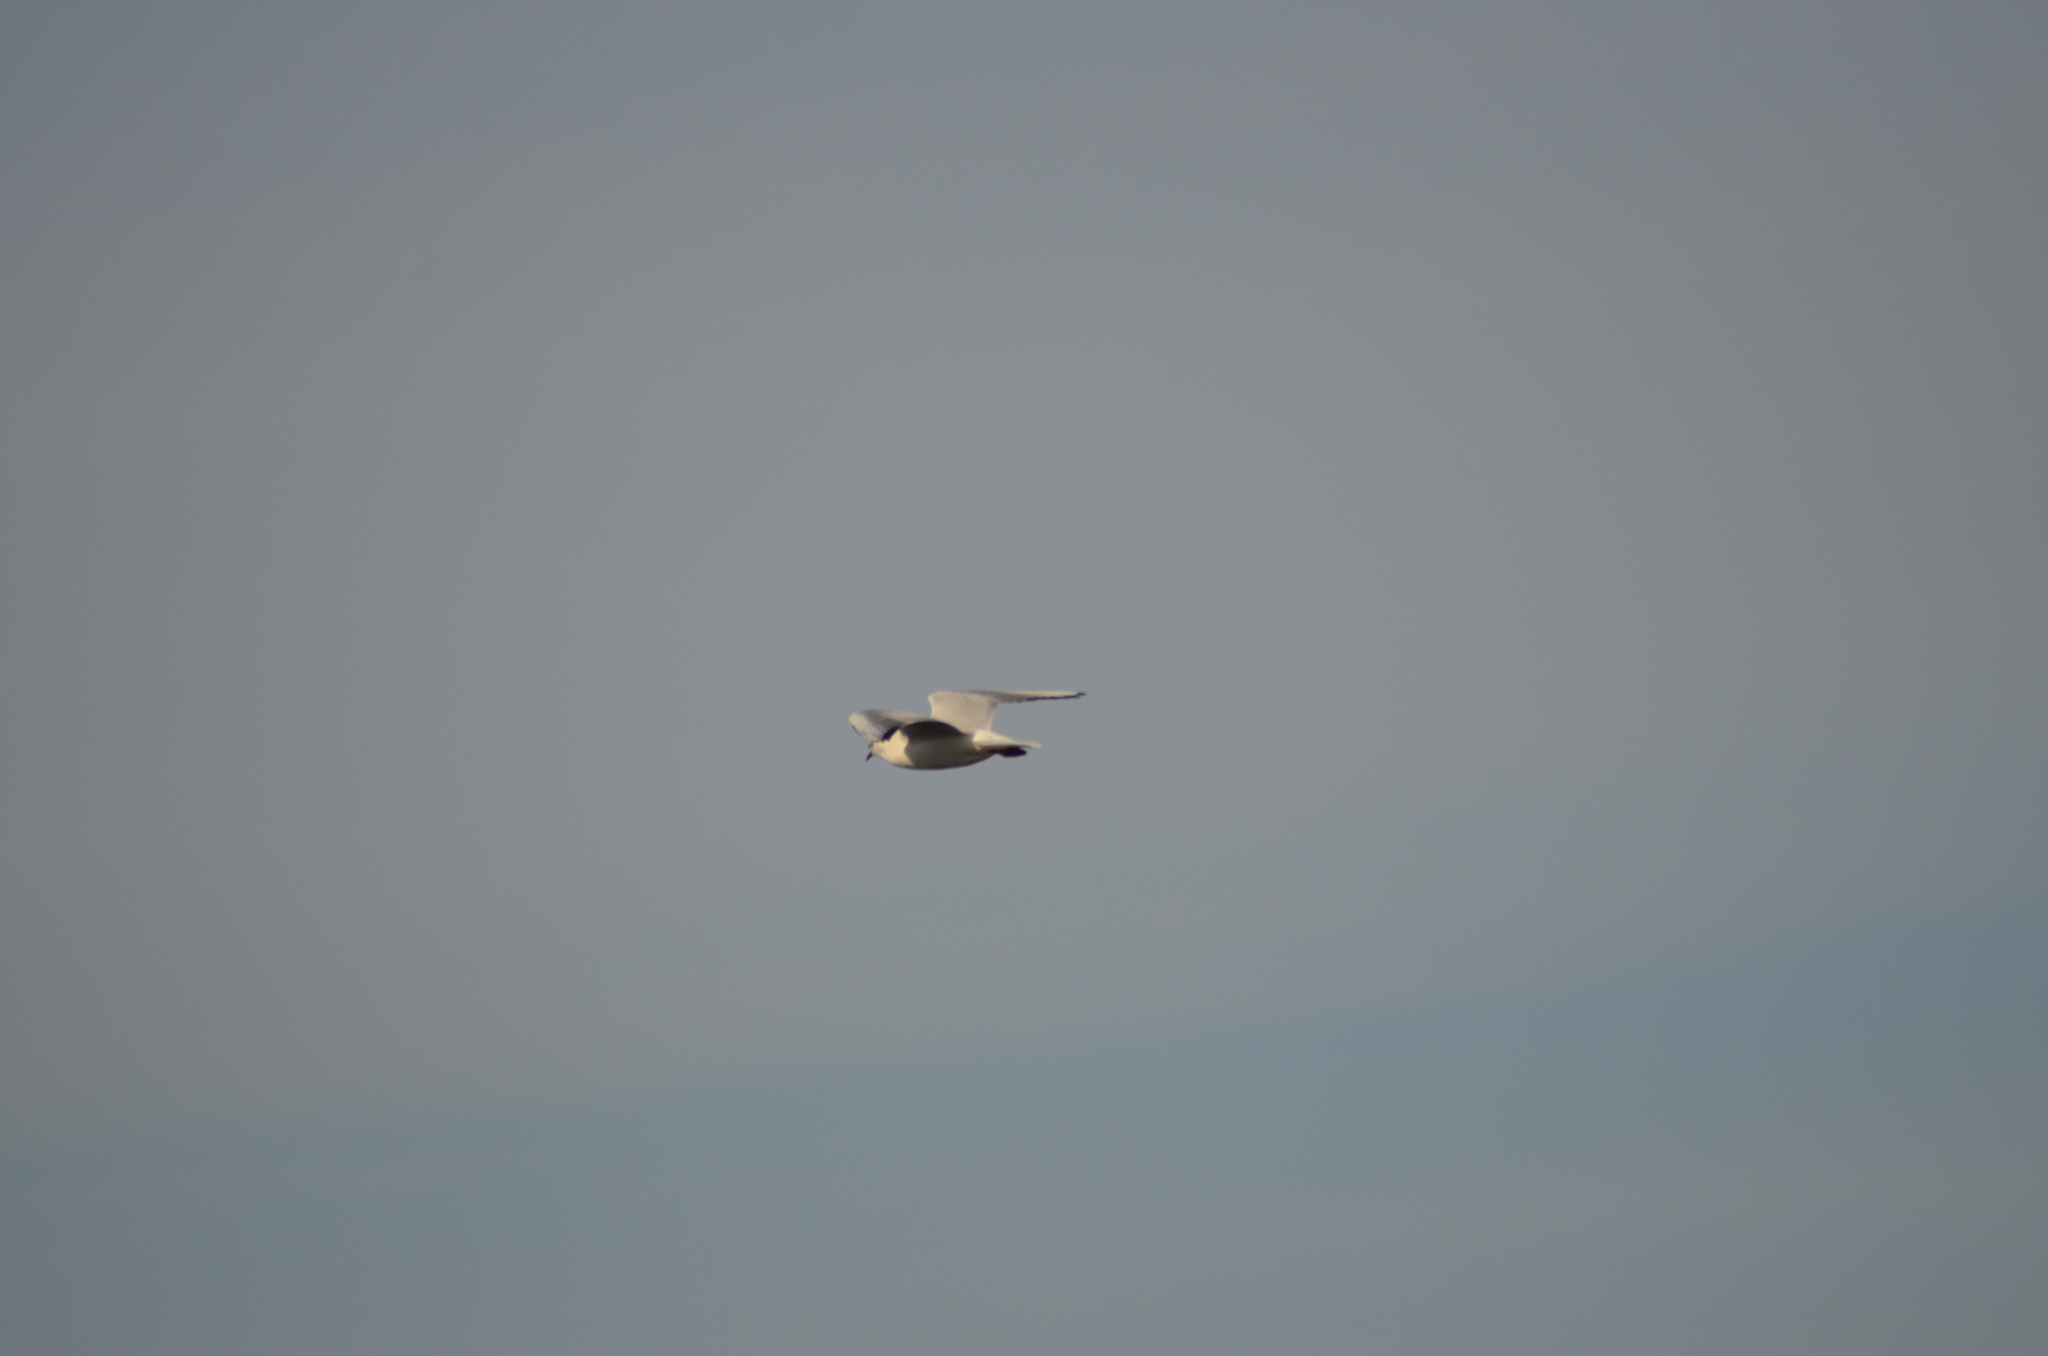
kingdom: Animalia
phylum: Chordata
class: Aves
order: Charadriiformes
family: Laridae
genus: Chroicocephalus
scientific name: Chroicocephalus ridibundus
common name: Black-headed gull
